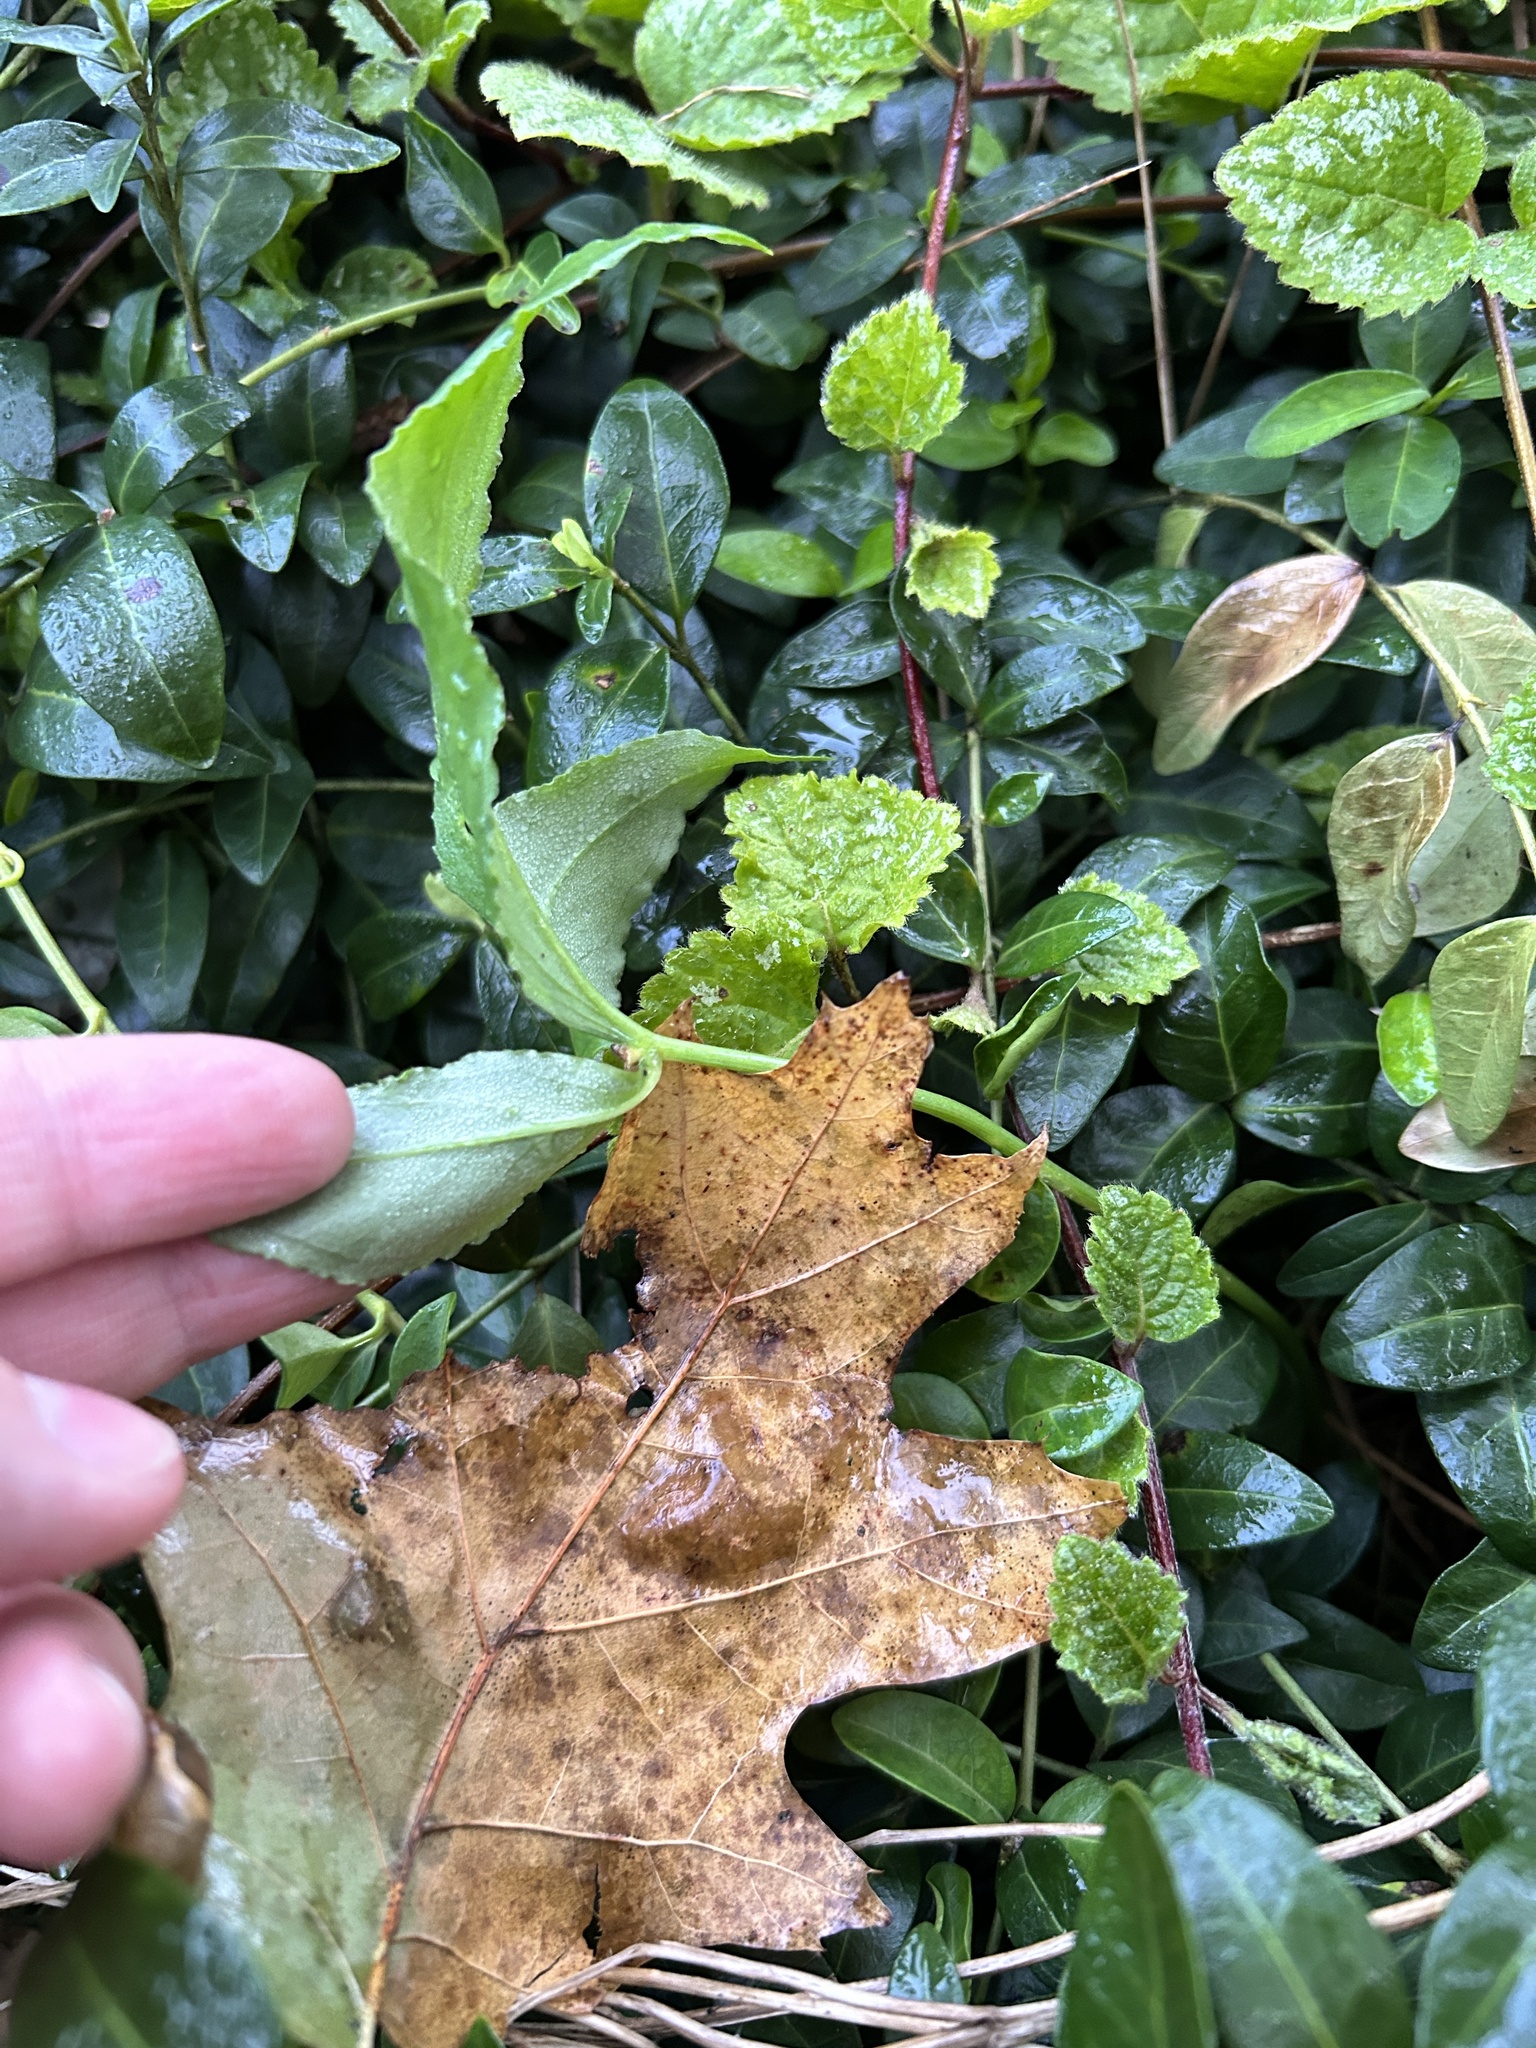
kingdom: Plantae
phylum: Tracheophyta
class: Liliopsida
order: Alismatales
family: Araceae
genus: Pinellia
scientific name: Pinellia ternata
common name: Pinellia
